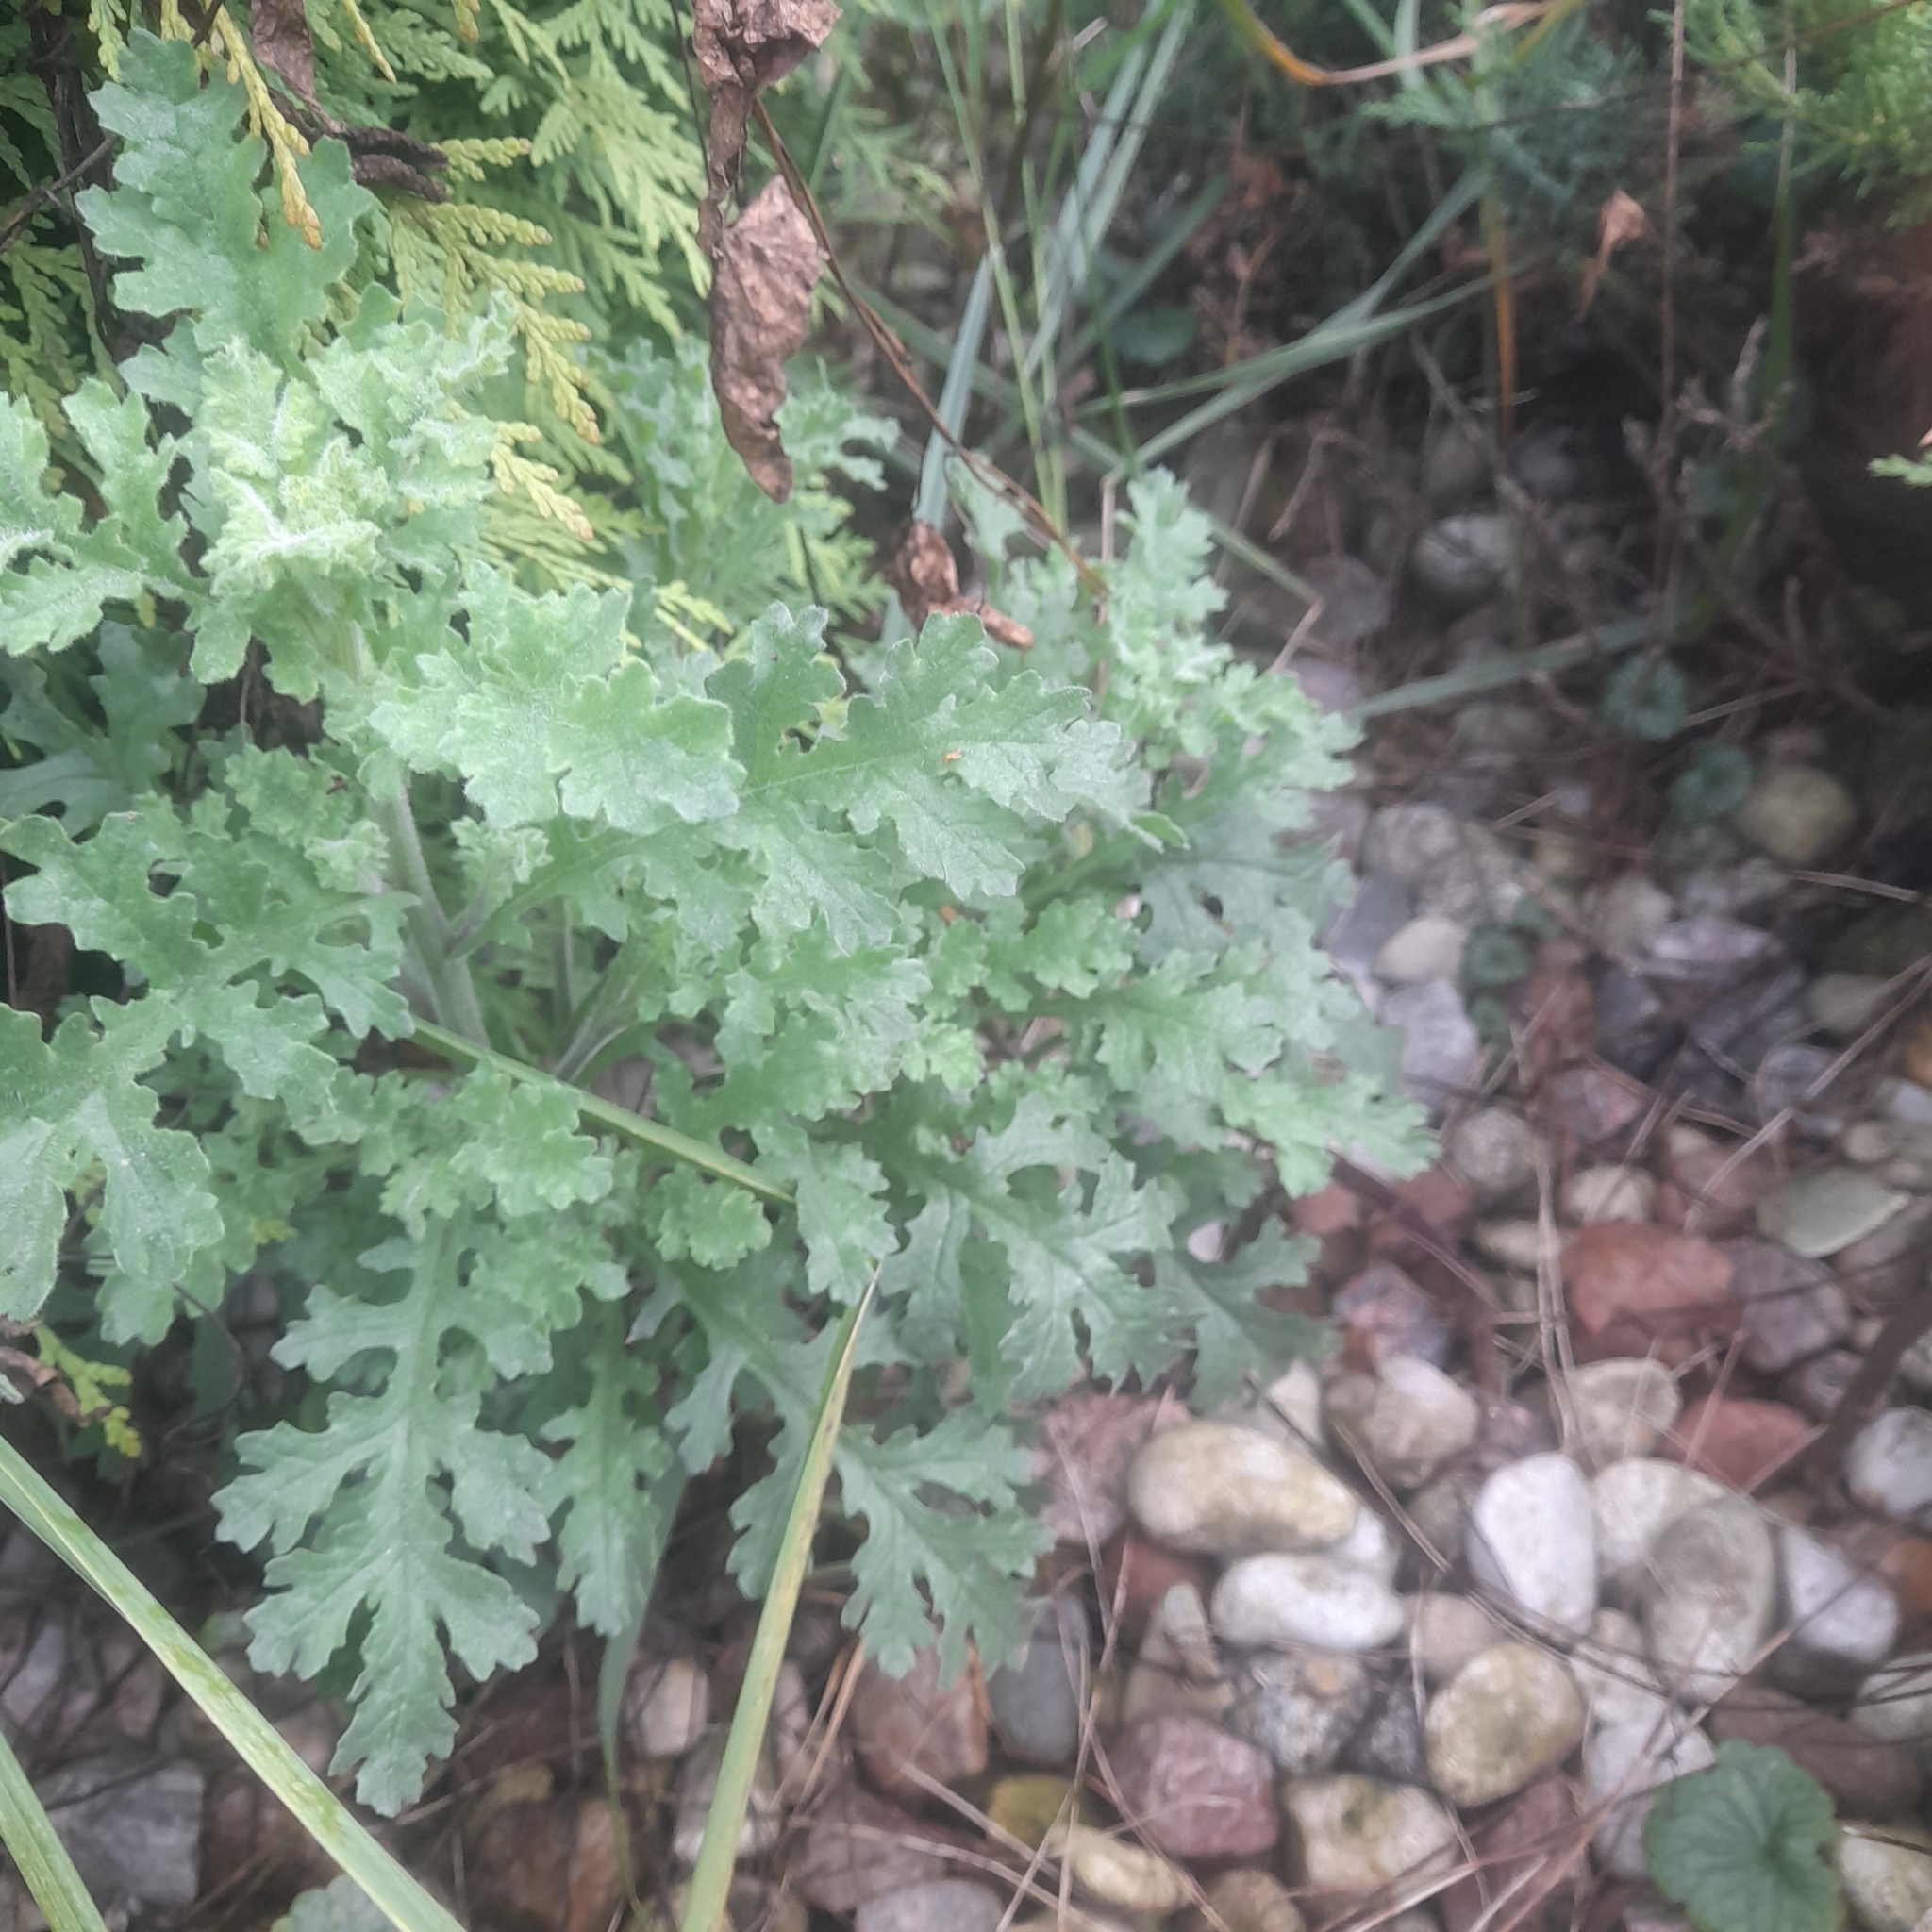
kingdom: Plantae
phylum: Tracheophyta
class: Magnoliopsida
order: Asterales
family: Asteraceae
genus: Jacobaea
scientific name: Jacobaea vulgaris
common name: Stinking willie
